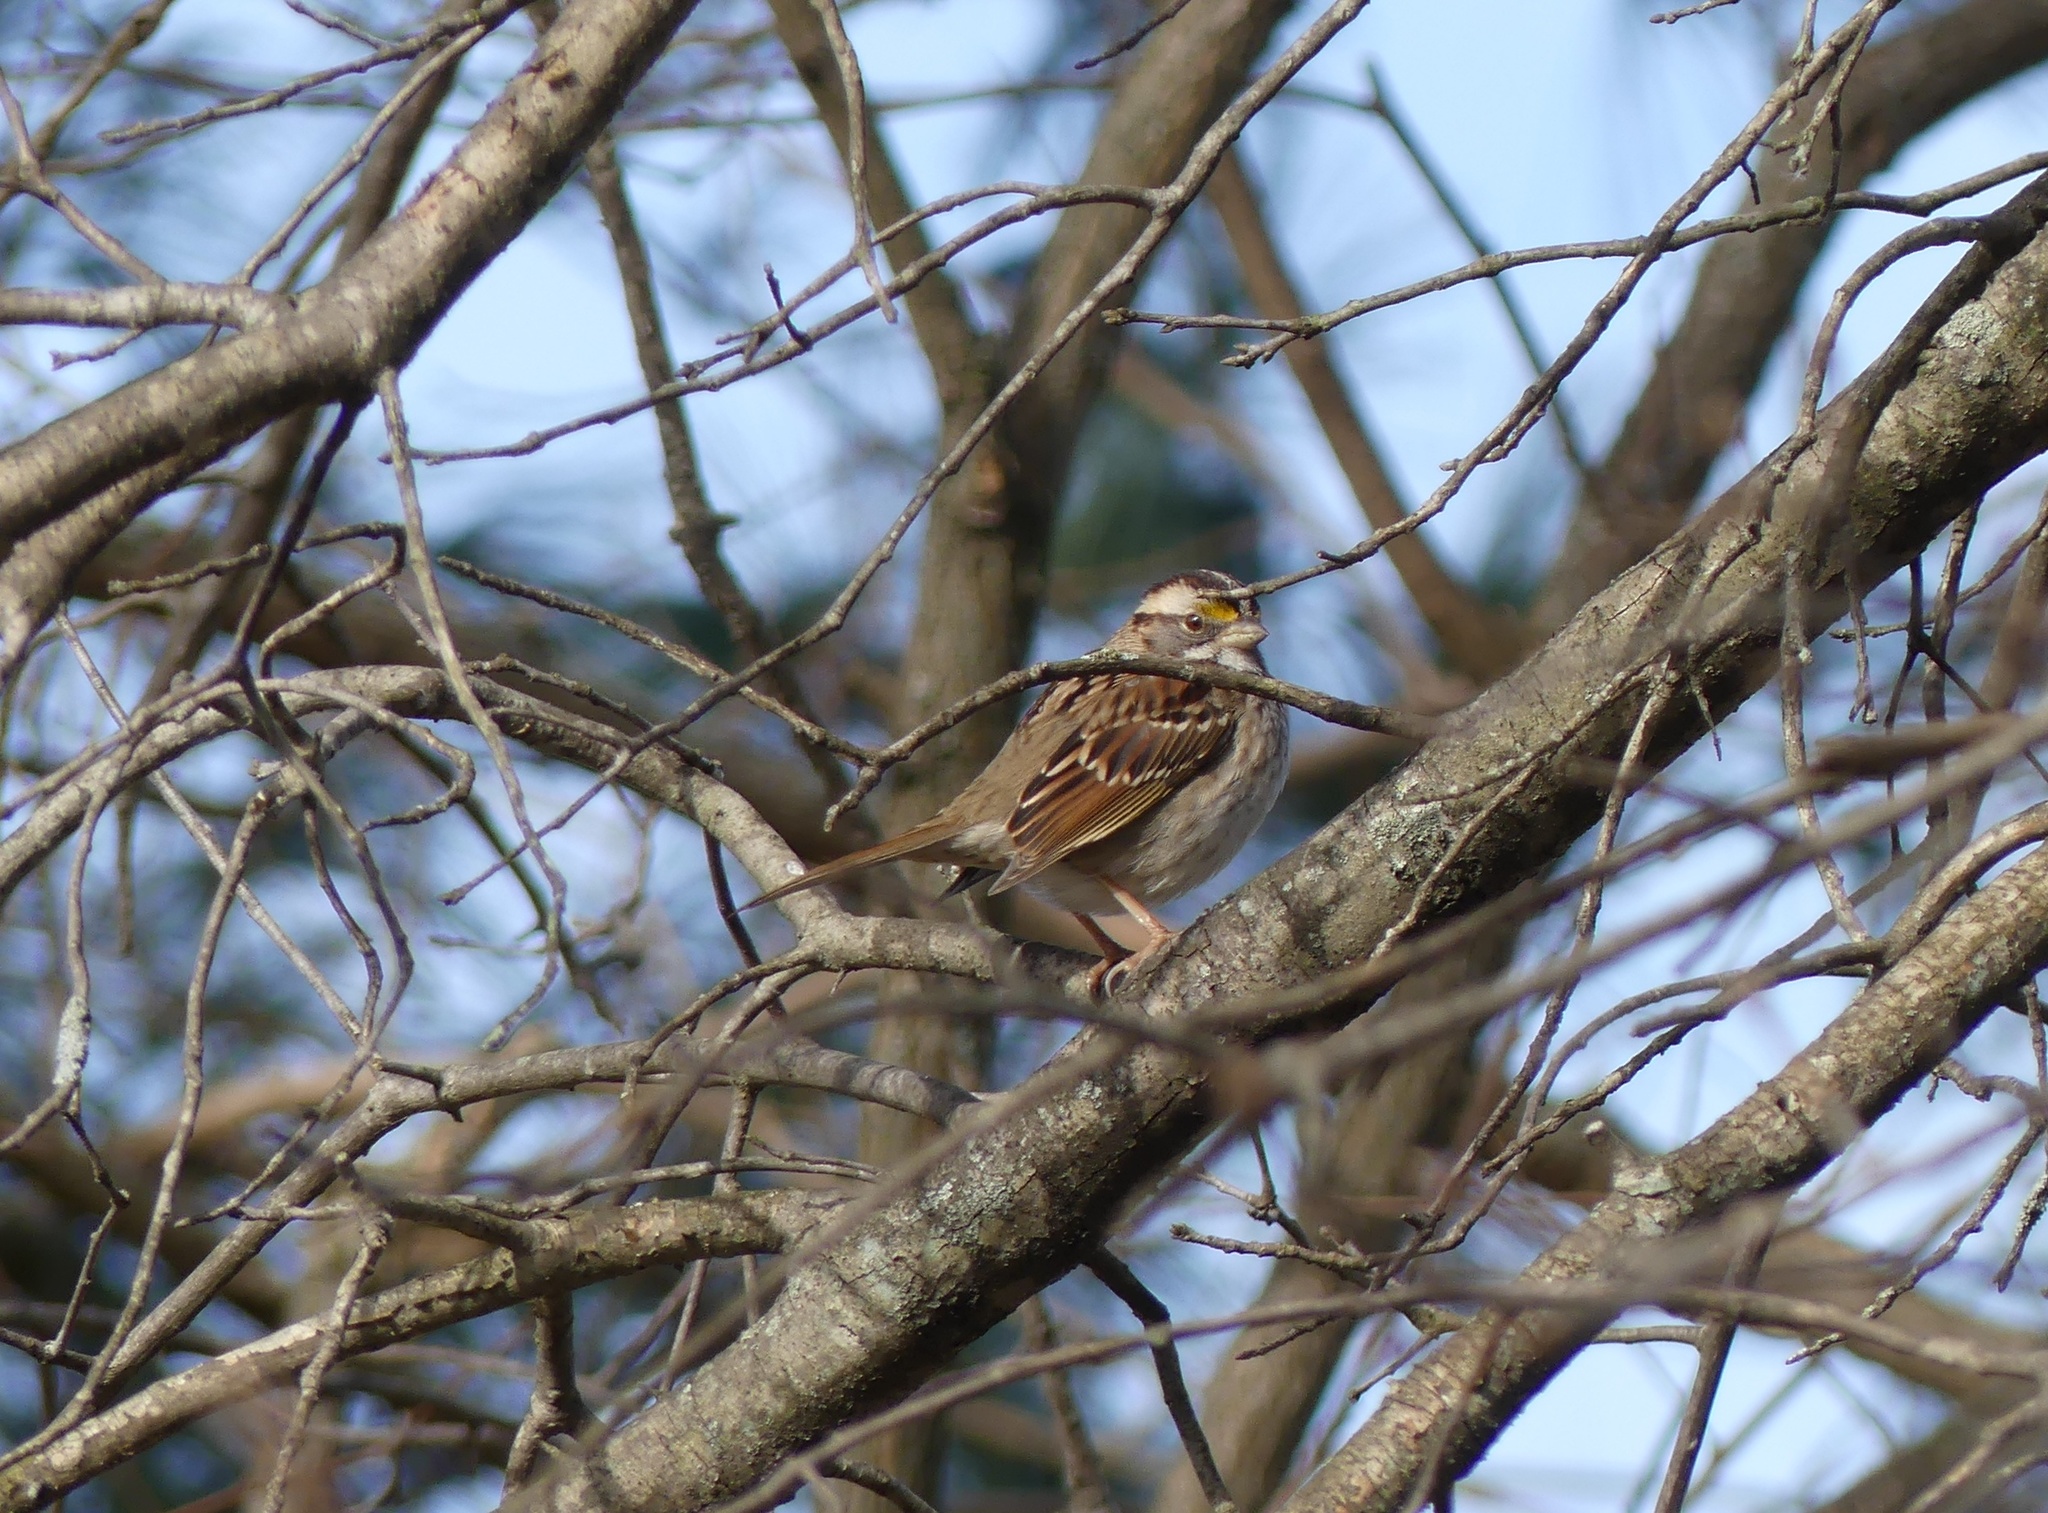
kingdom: Animalia
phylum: Chordata
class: Aves
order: Passeriformes
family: Passerellidae
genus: Zonotrichia
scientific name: Zonotrichia albicollis
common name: White-throated sparrow
